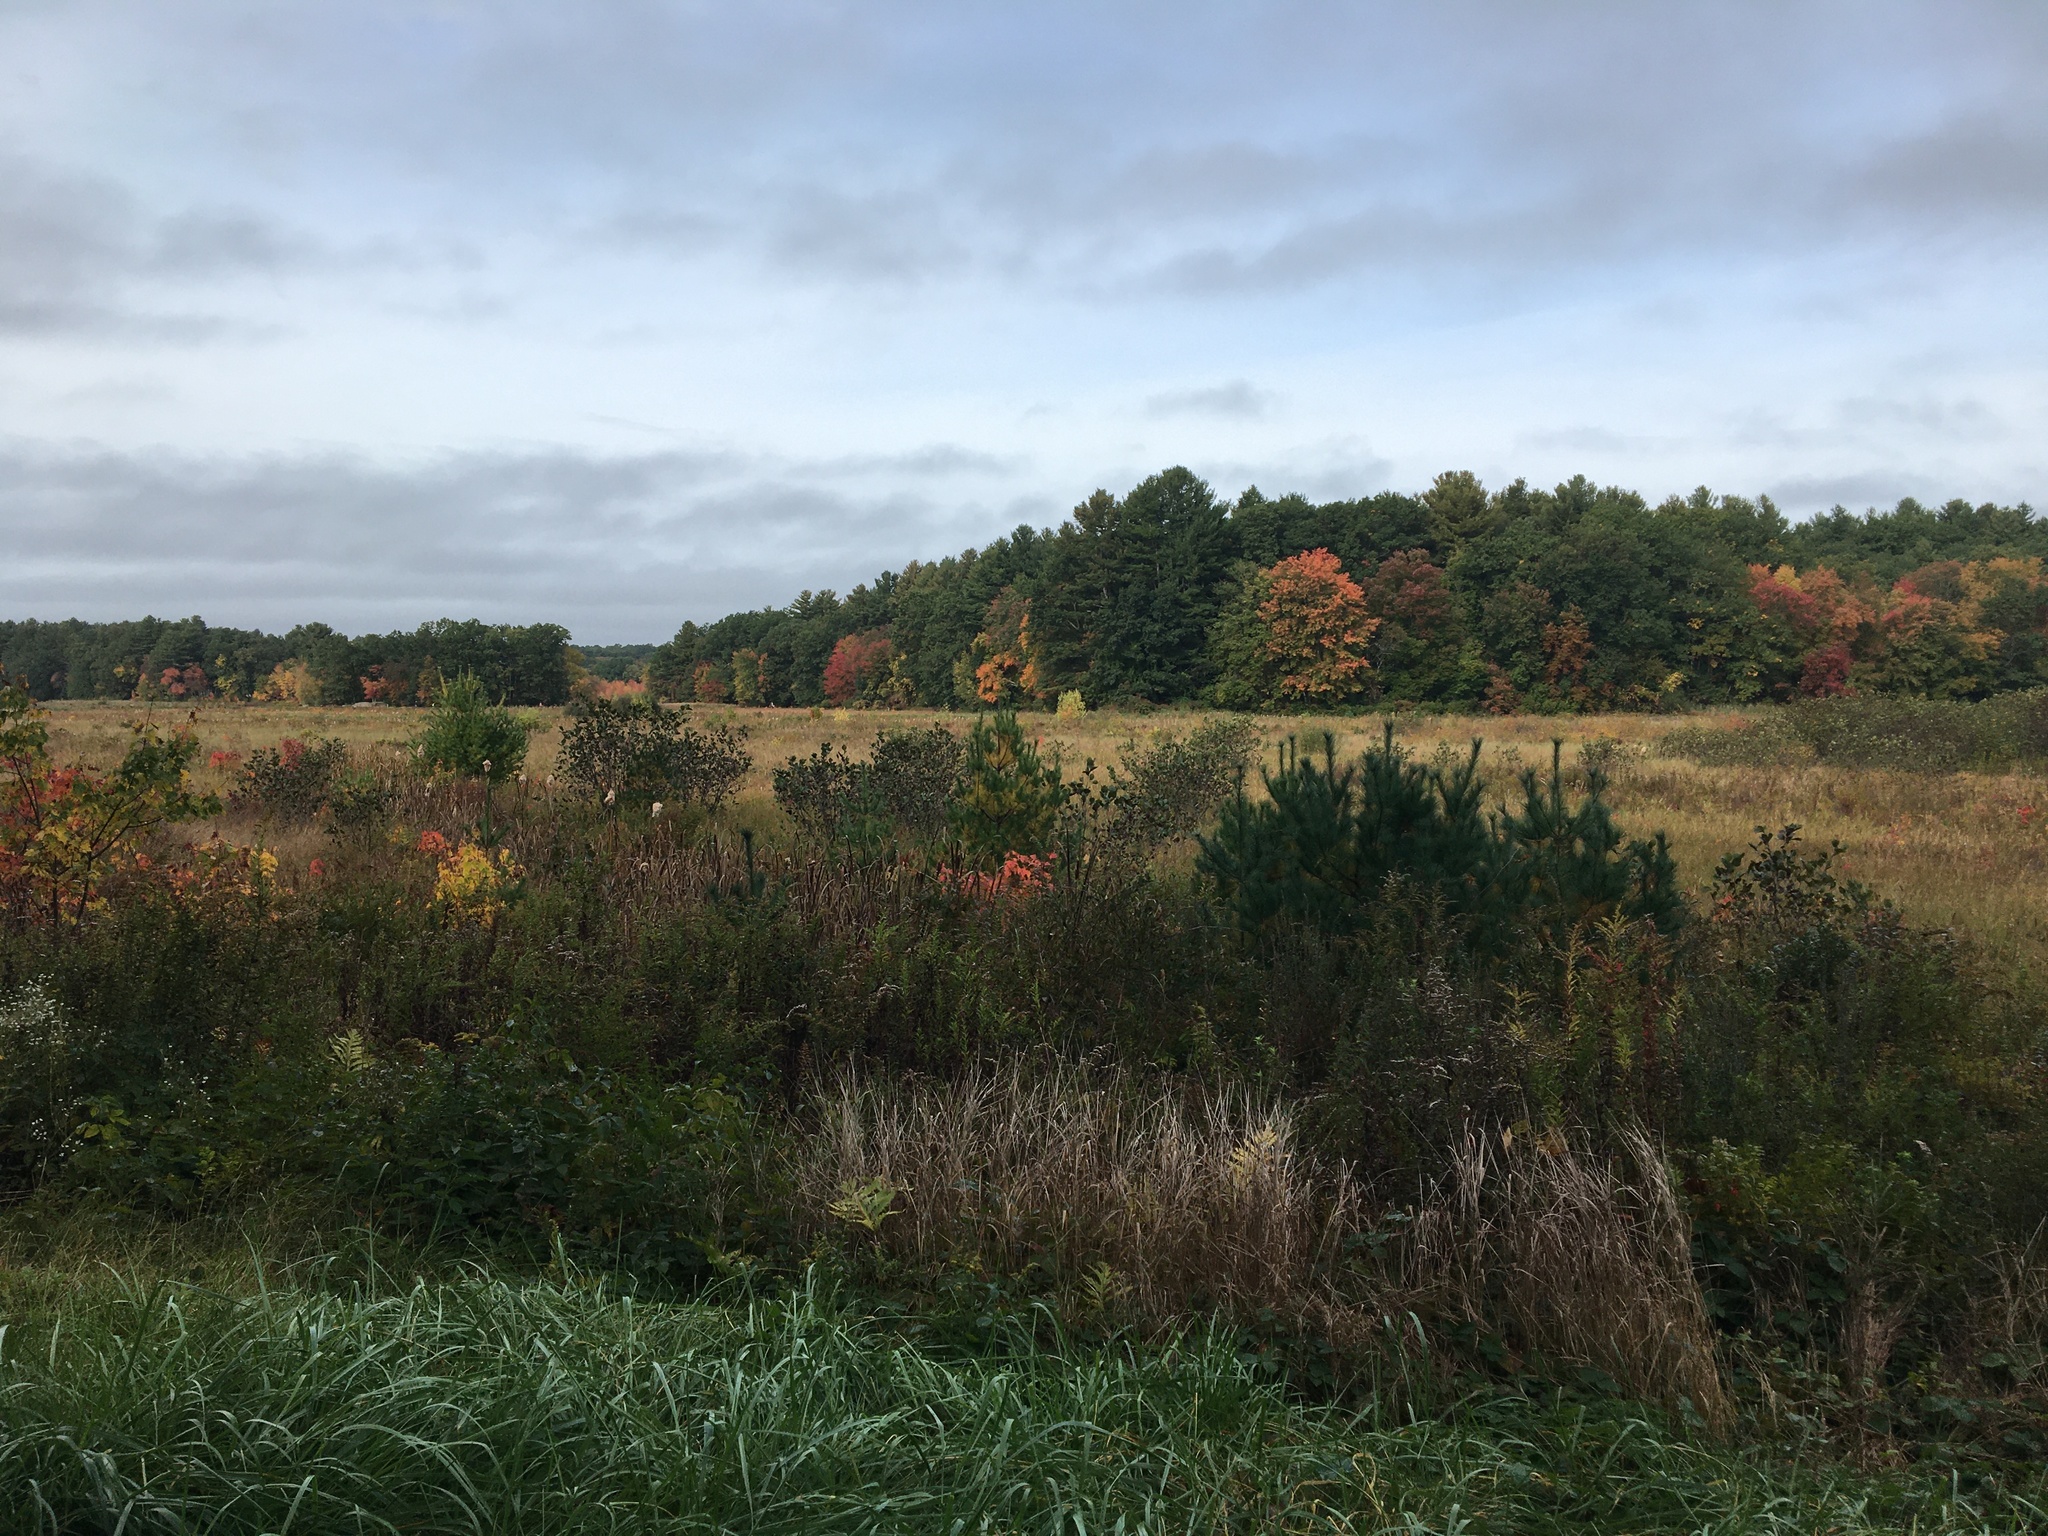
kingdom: Plantae
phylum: Tracheophyta
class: Pinopsida
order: Pinales
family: Pinaceae
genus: Pinus
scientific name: Pinus strobus
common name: Weymouth pine
